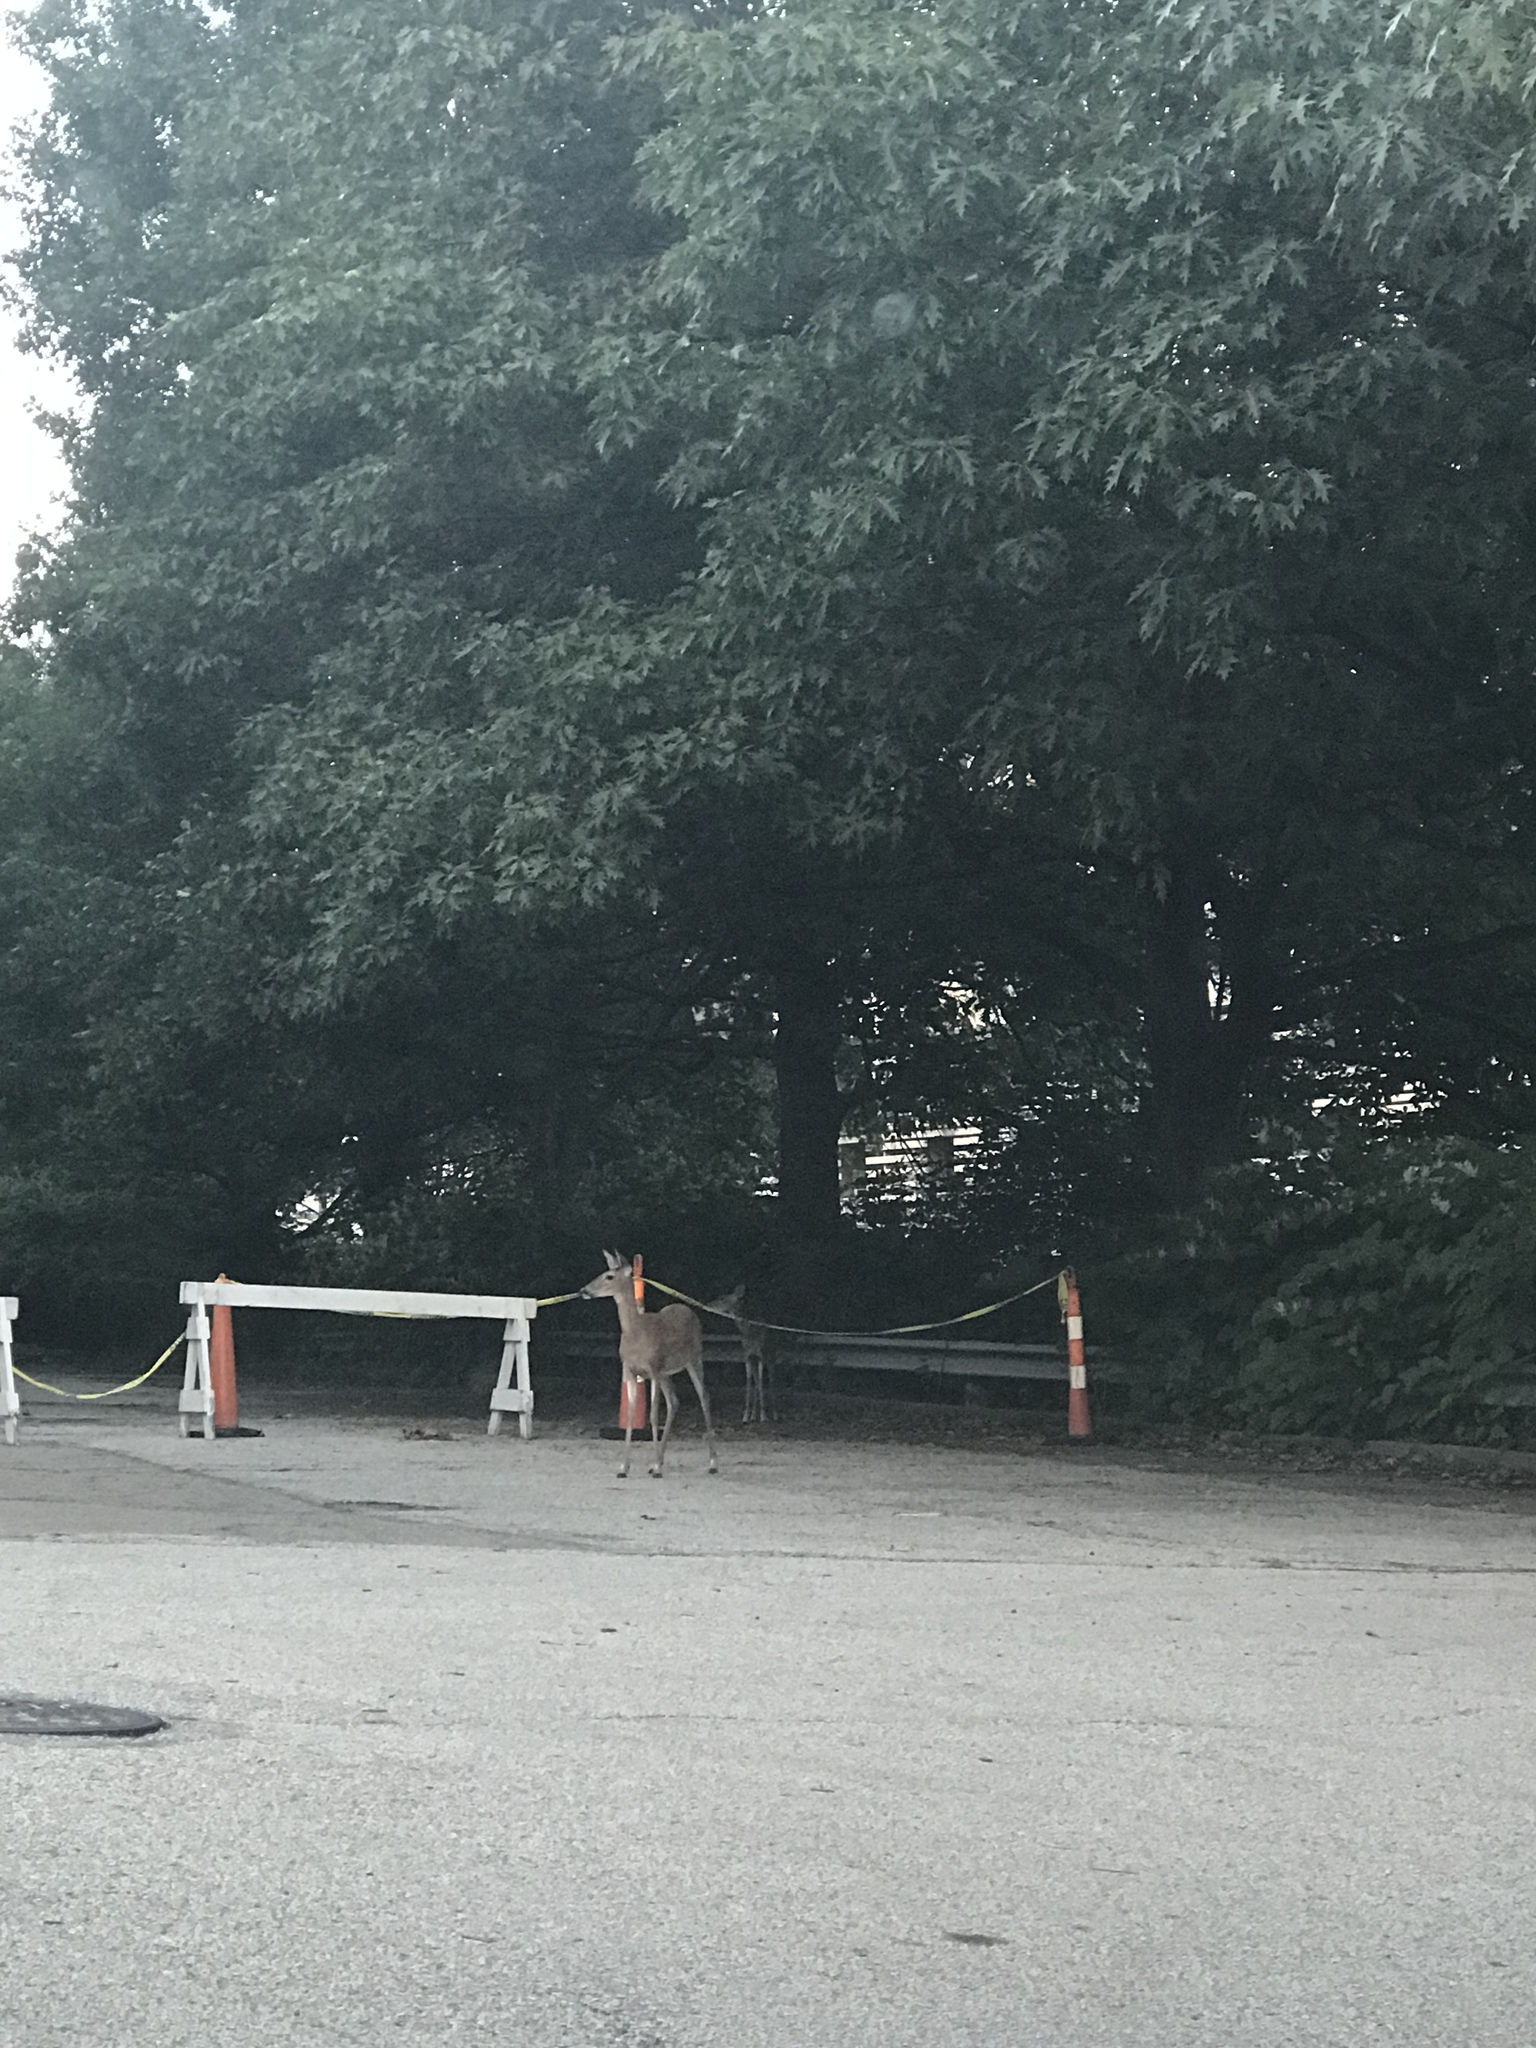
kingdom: Animalia
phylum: Chordata
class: Mammalia
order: Artiodactyla
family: Cervidae
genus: Odocoileus
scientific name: Odocoileus virginianus
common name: White-tailed deer
